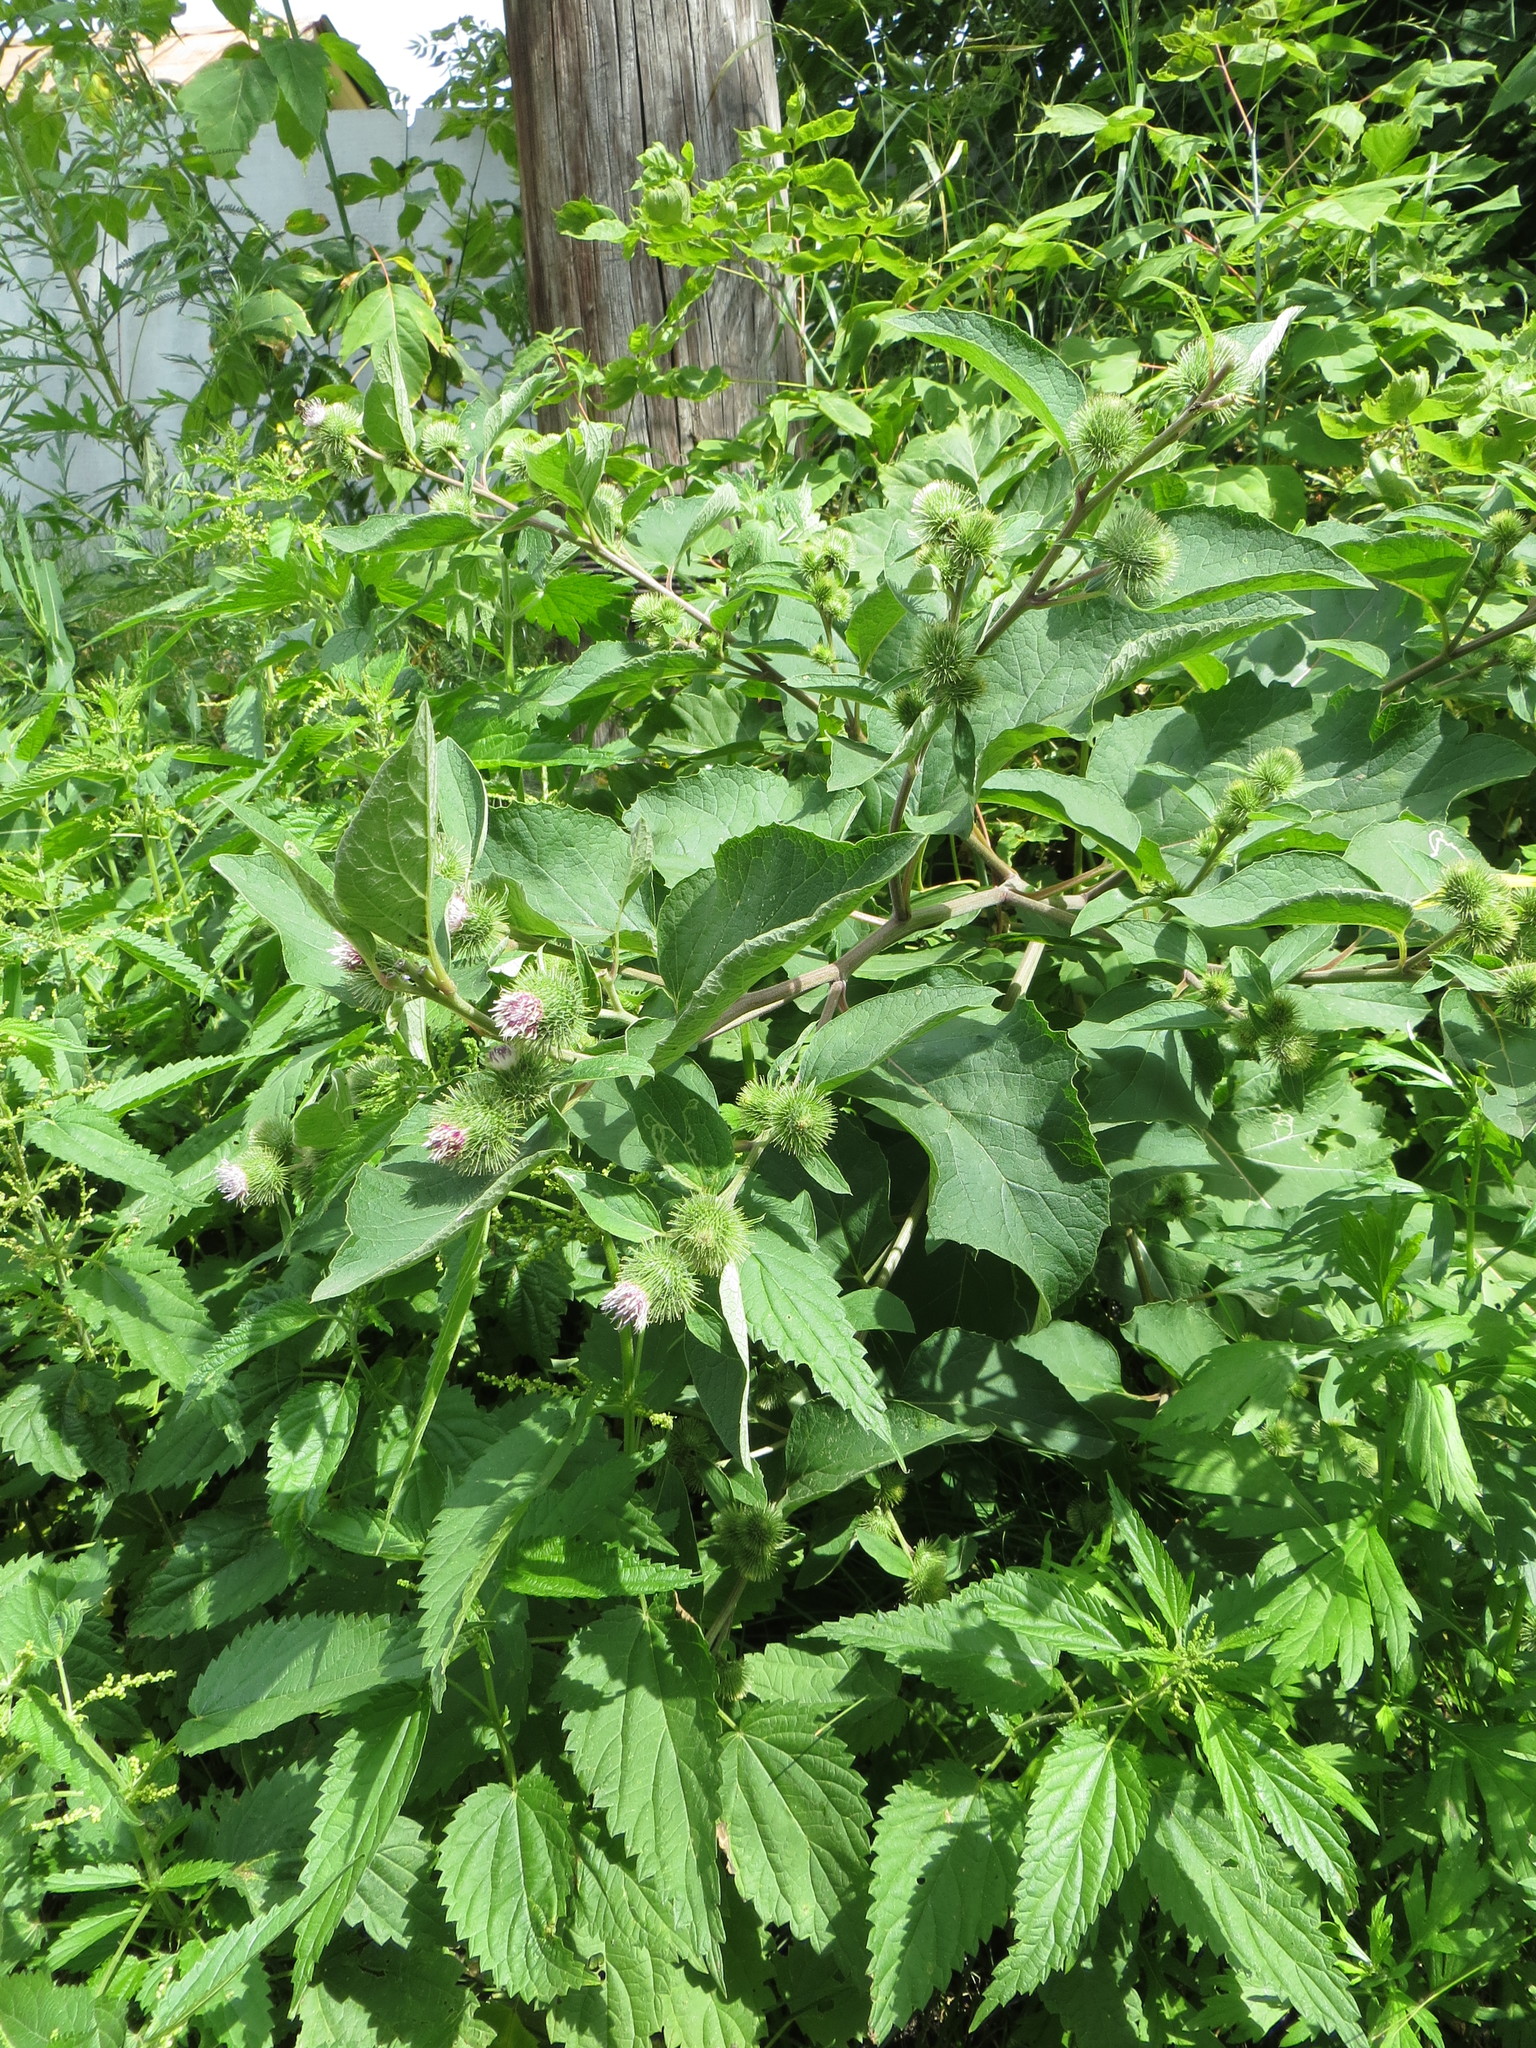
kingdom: Plantae
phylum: Tracheophyta
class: Magnoliopsida
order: Asterales
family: Asteraceae
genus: Arctium
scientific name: Arctium mixtum
